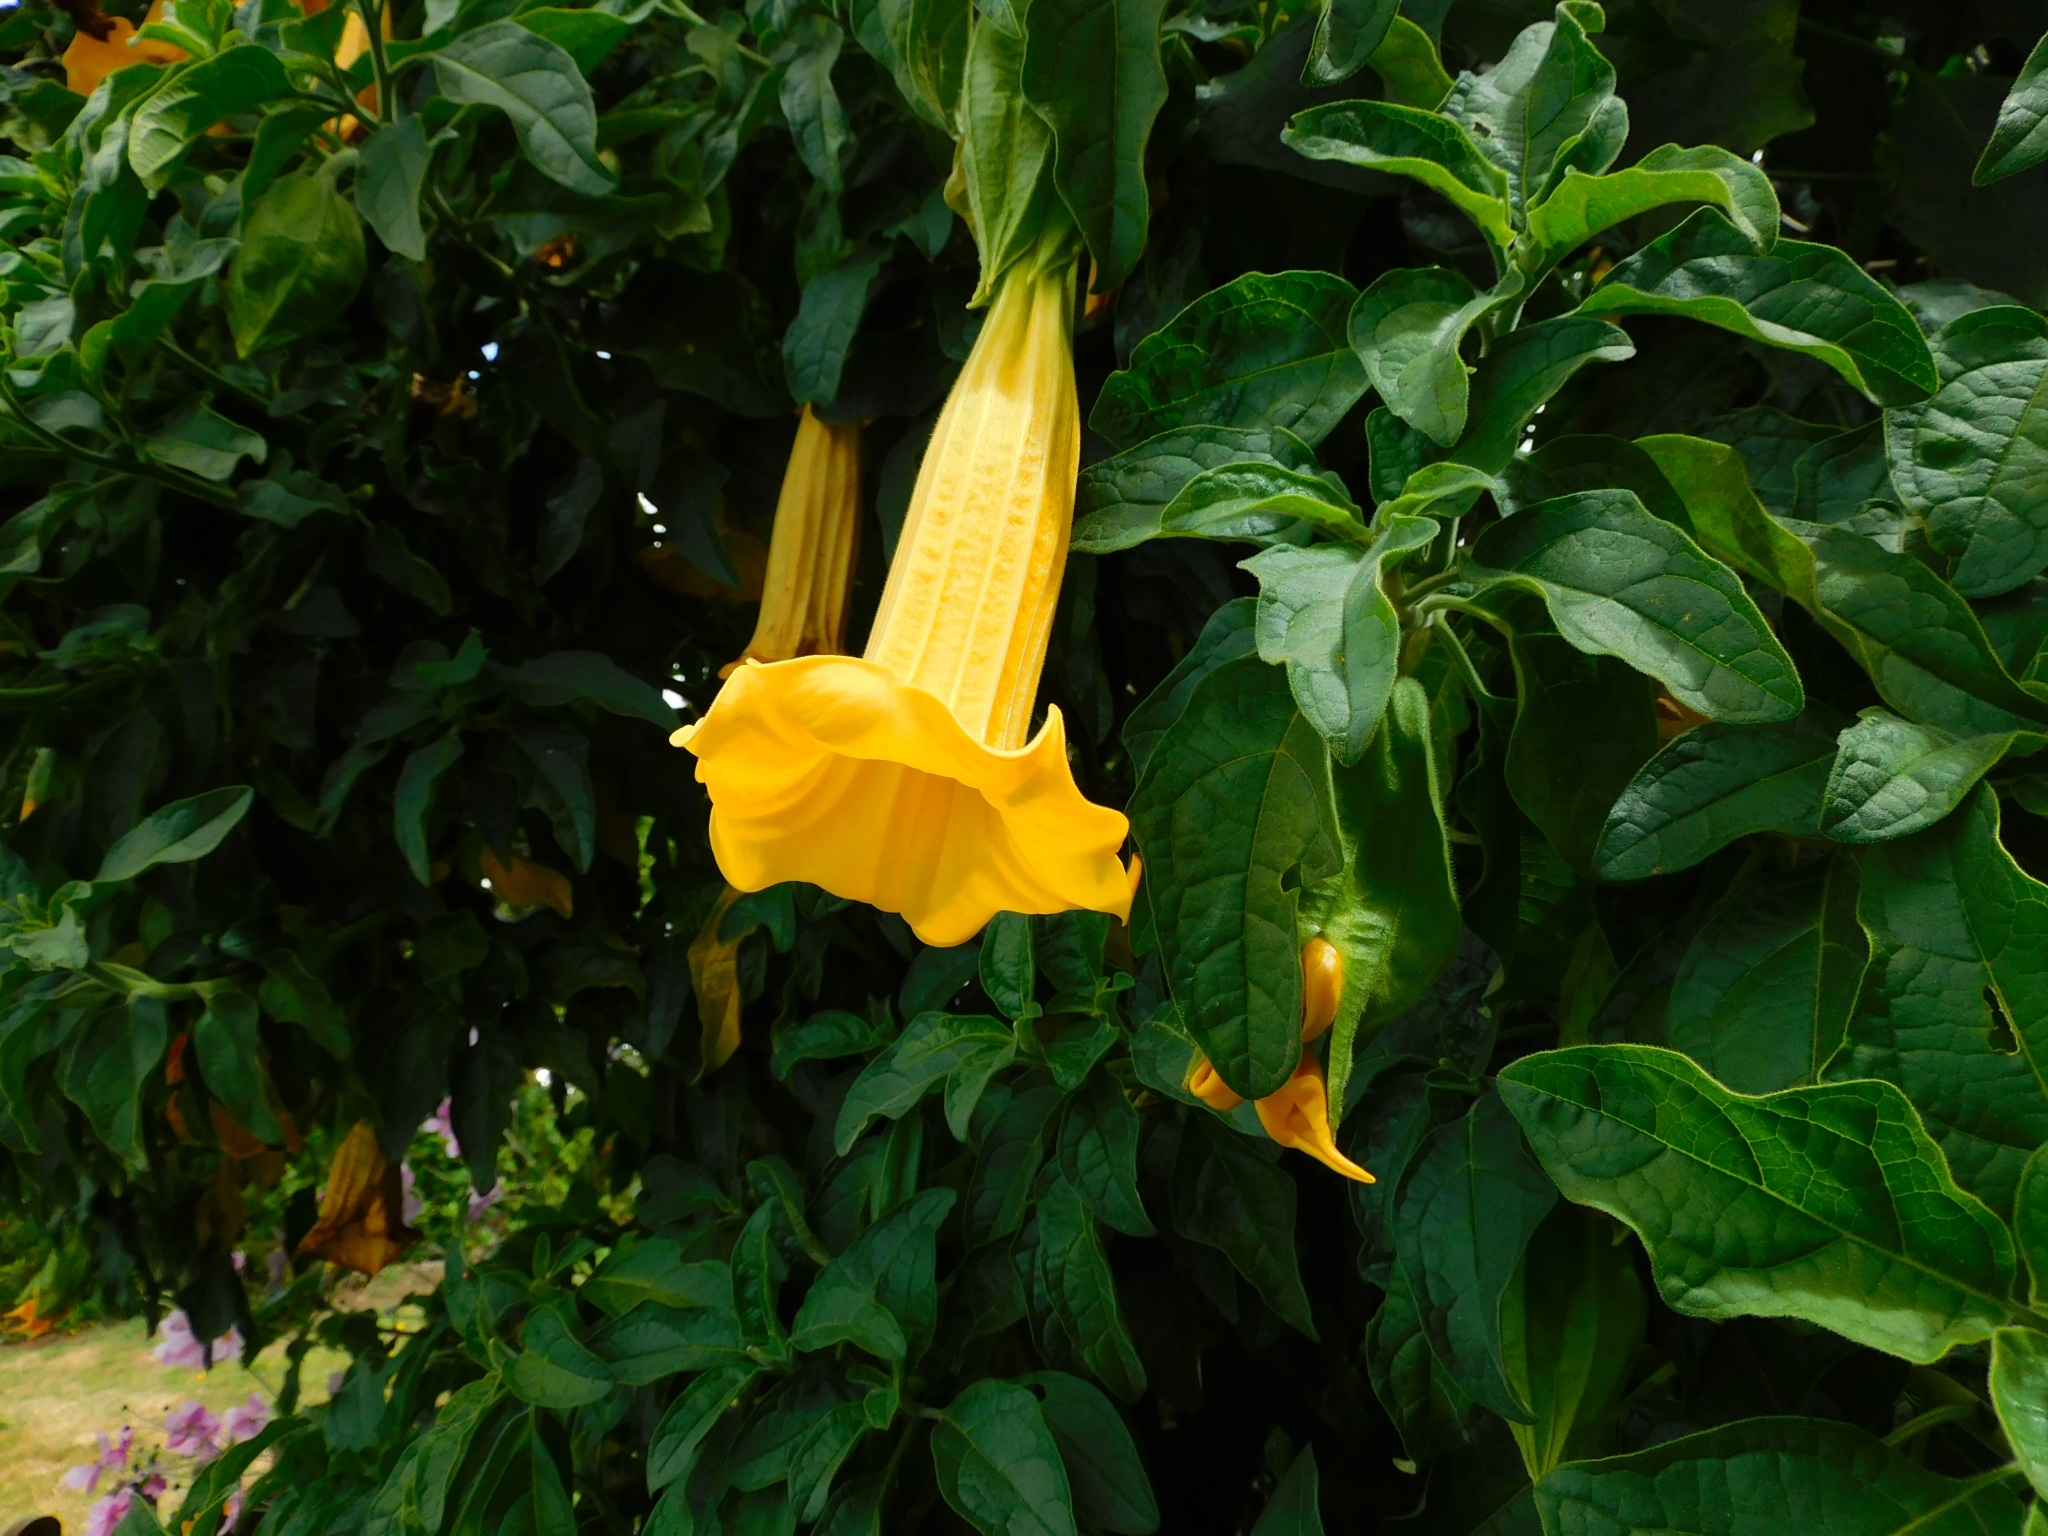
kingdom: Plantae
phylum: Tracheophyta
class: Magnoliopsida
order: Solanales
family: Solanaceae
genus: Brugmansia
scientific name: Brugmansia aurea
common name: Yellow angel's-trumpet
